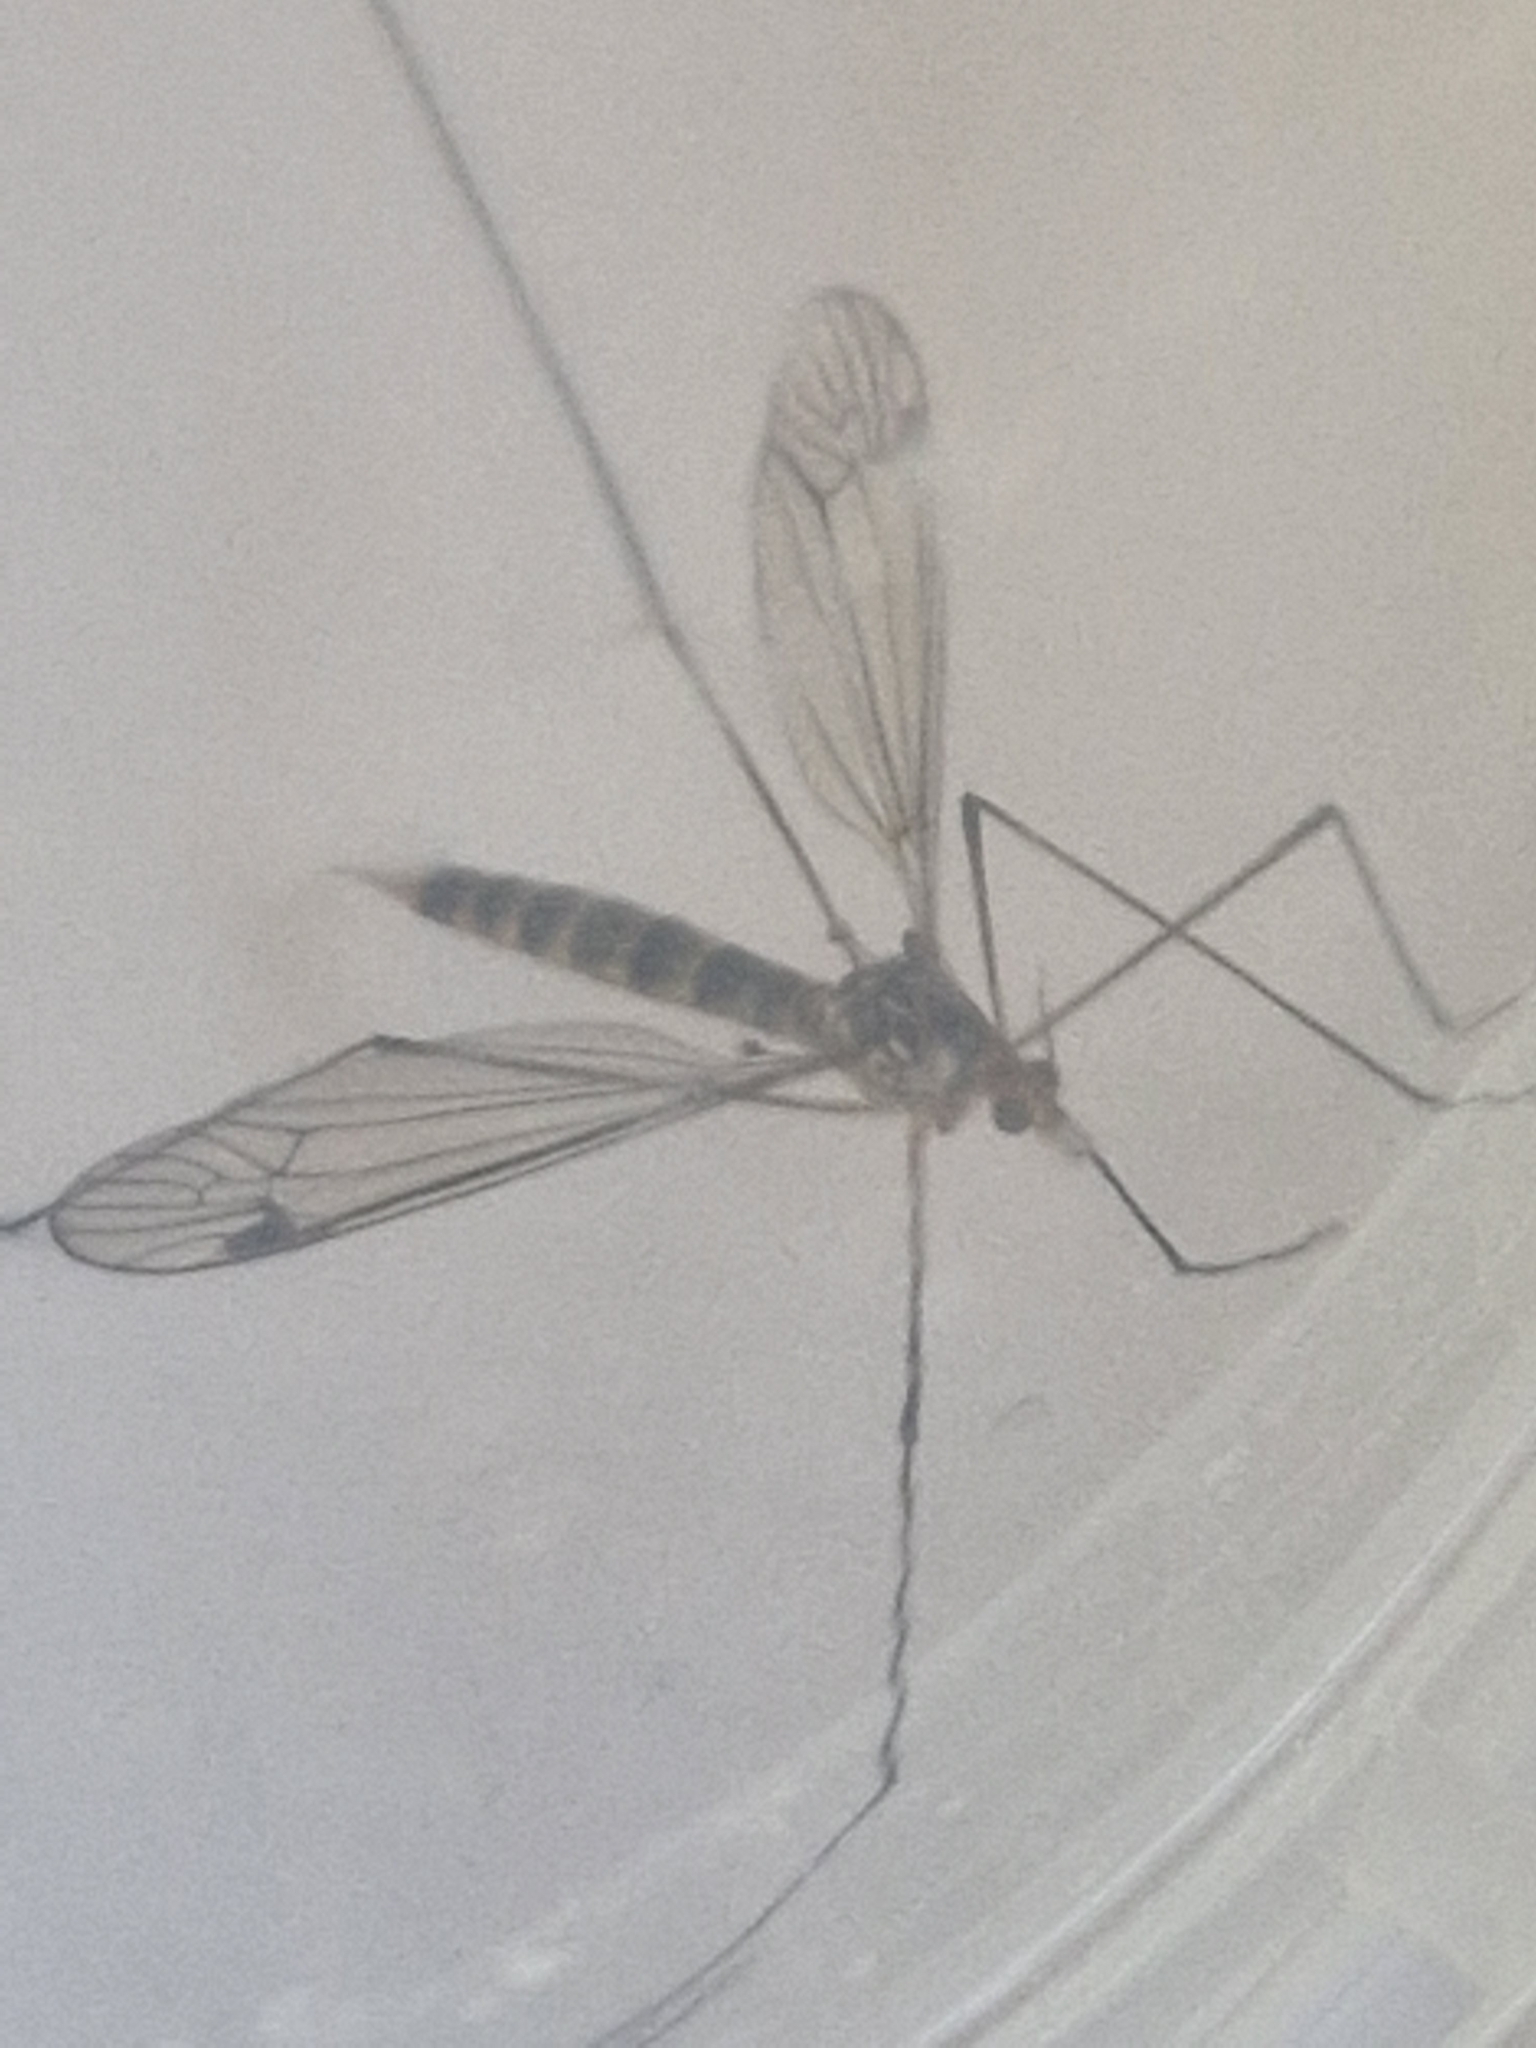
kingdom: Animalia
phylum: Arthropoda
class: Insecta
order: Diptera
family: Tipulidae
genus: Nephrotoma
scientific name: Nephrotoma flavipalpis
